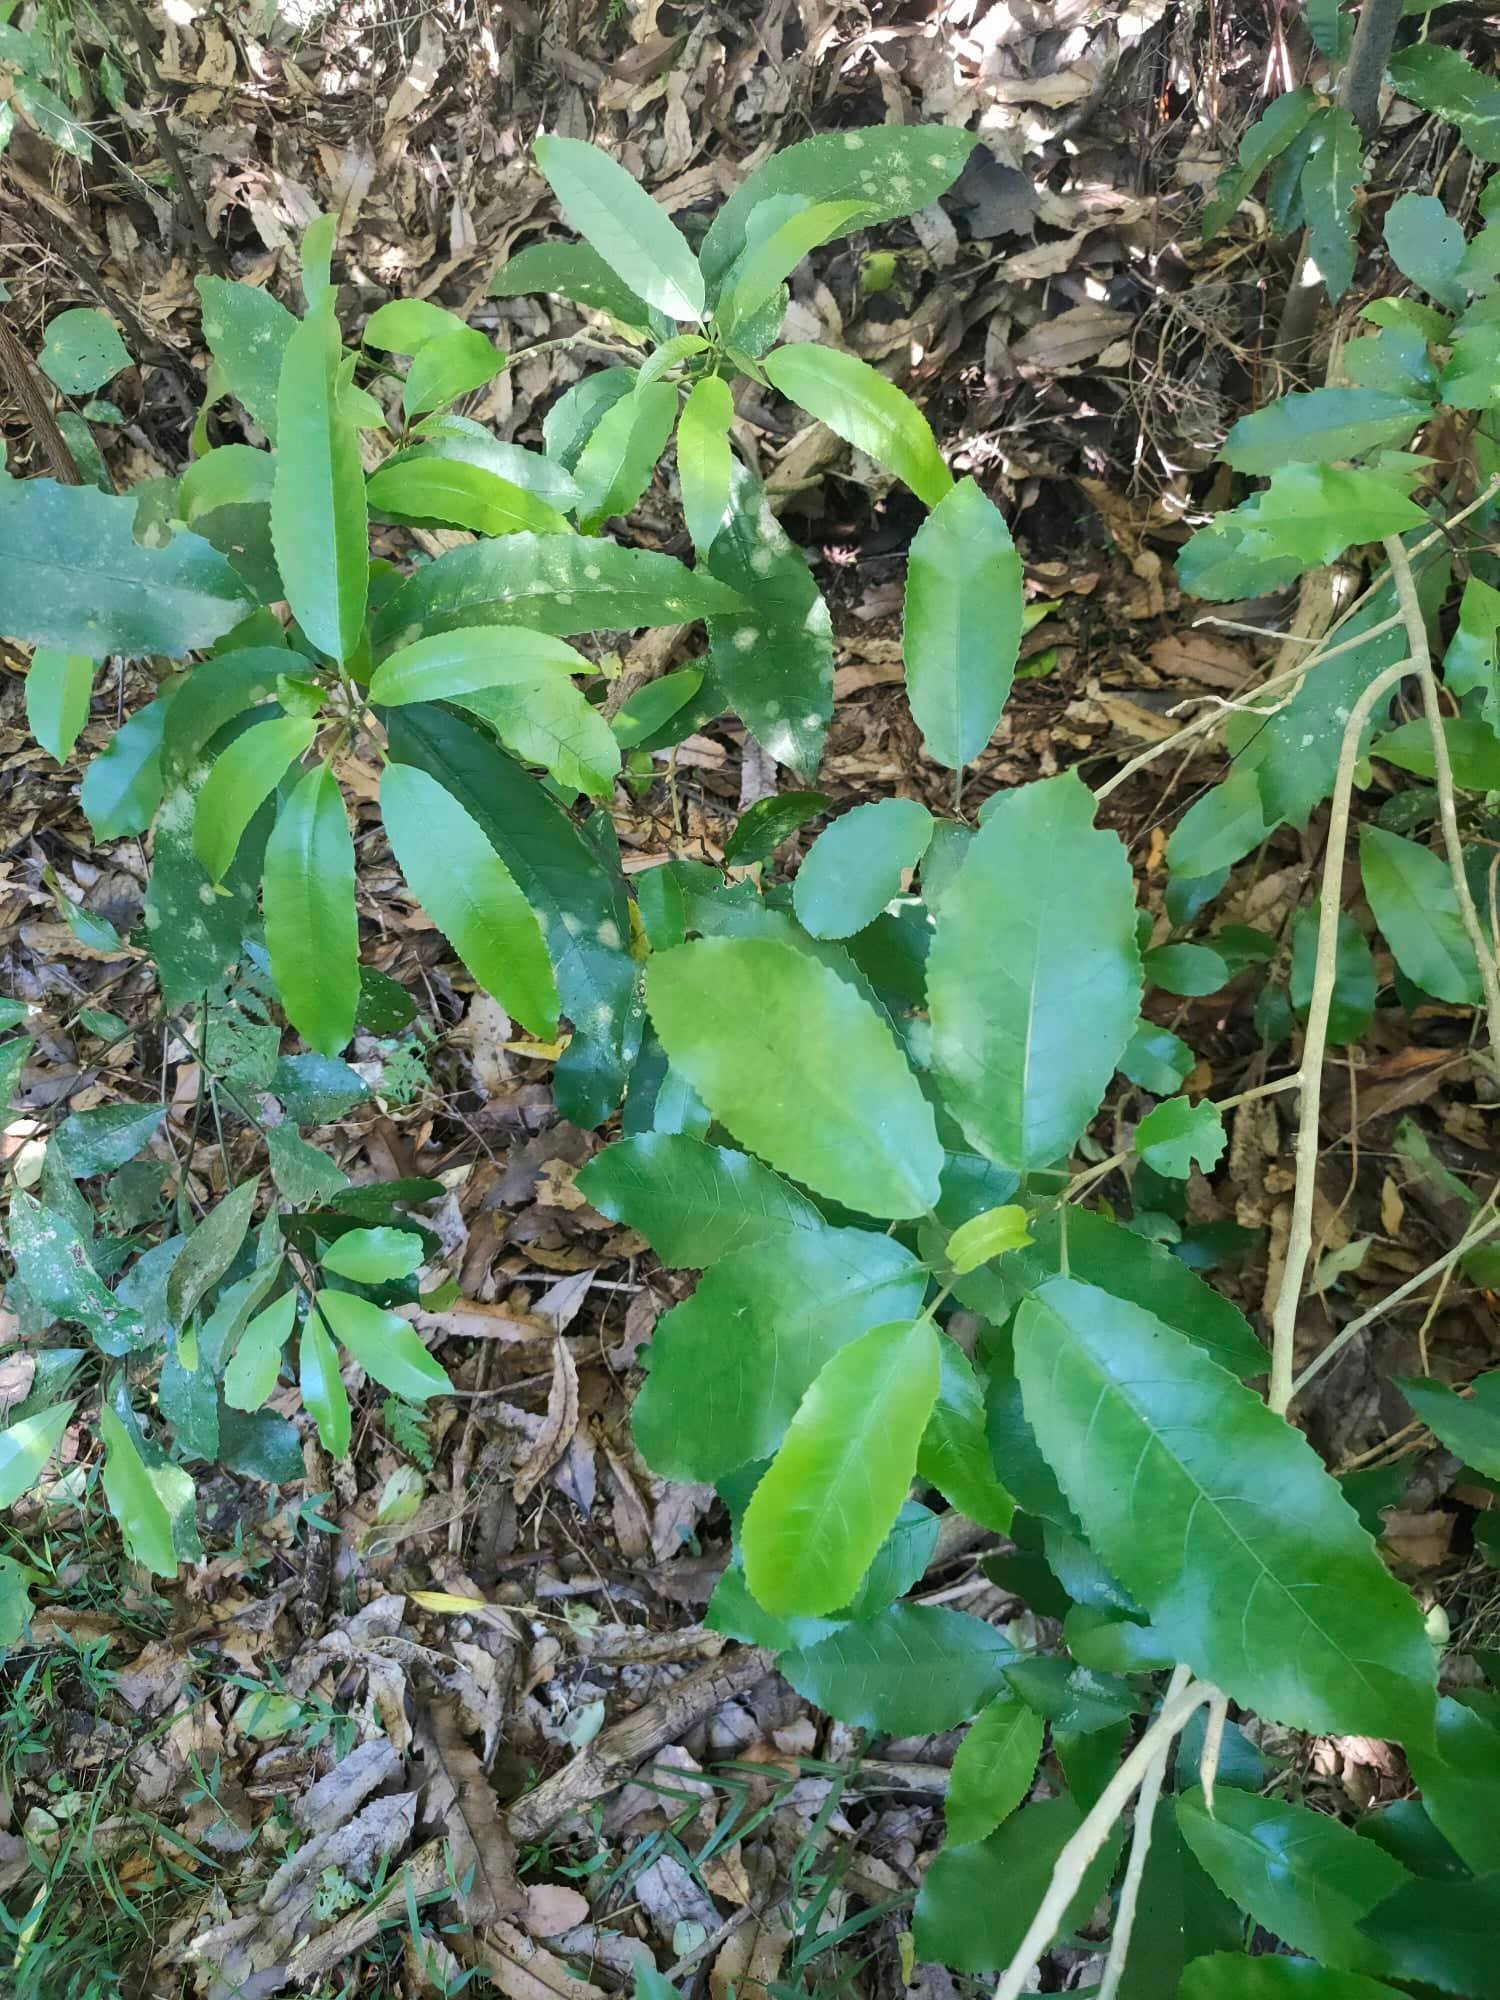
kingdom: Plantae
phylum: Tracheophyta
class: Magnoliopsida
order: Malpighiales
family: Violaceae
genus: Melicytus
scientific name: Melicytus ramiflorus
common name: Mahoe
